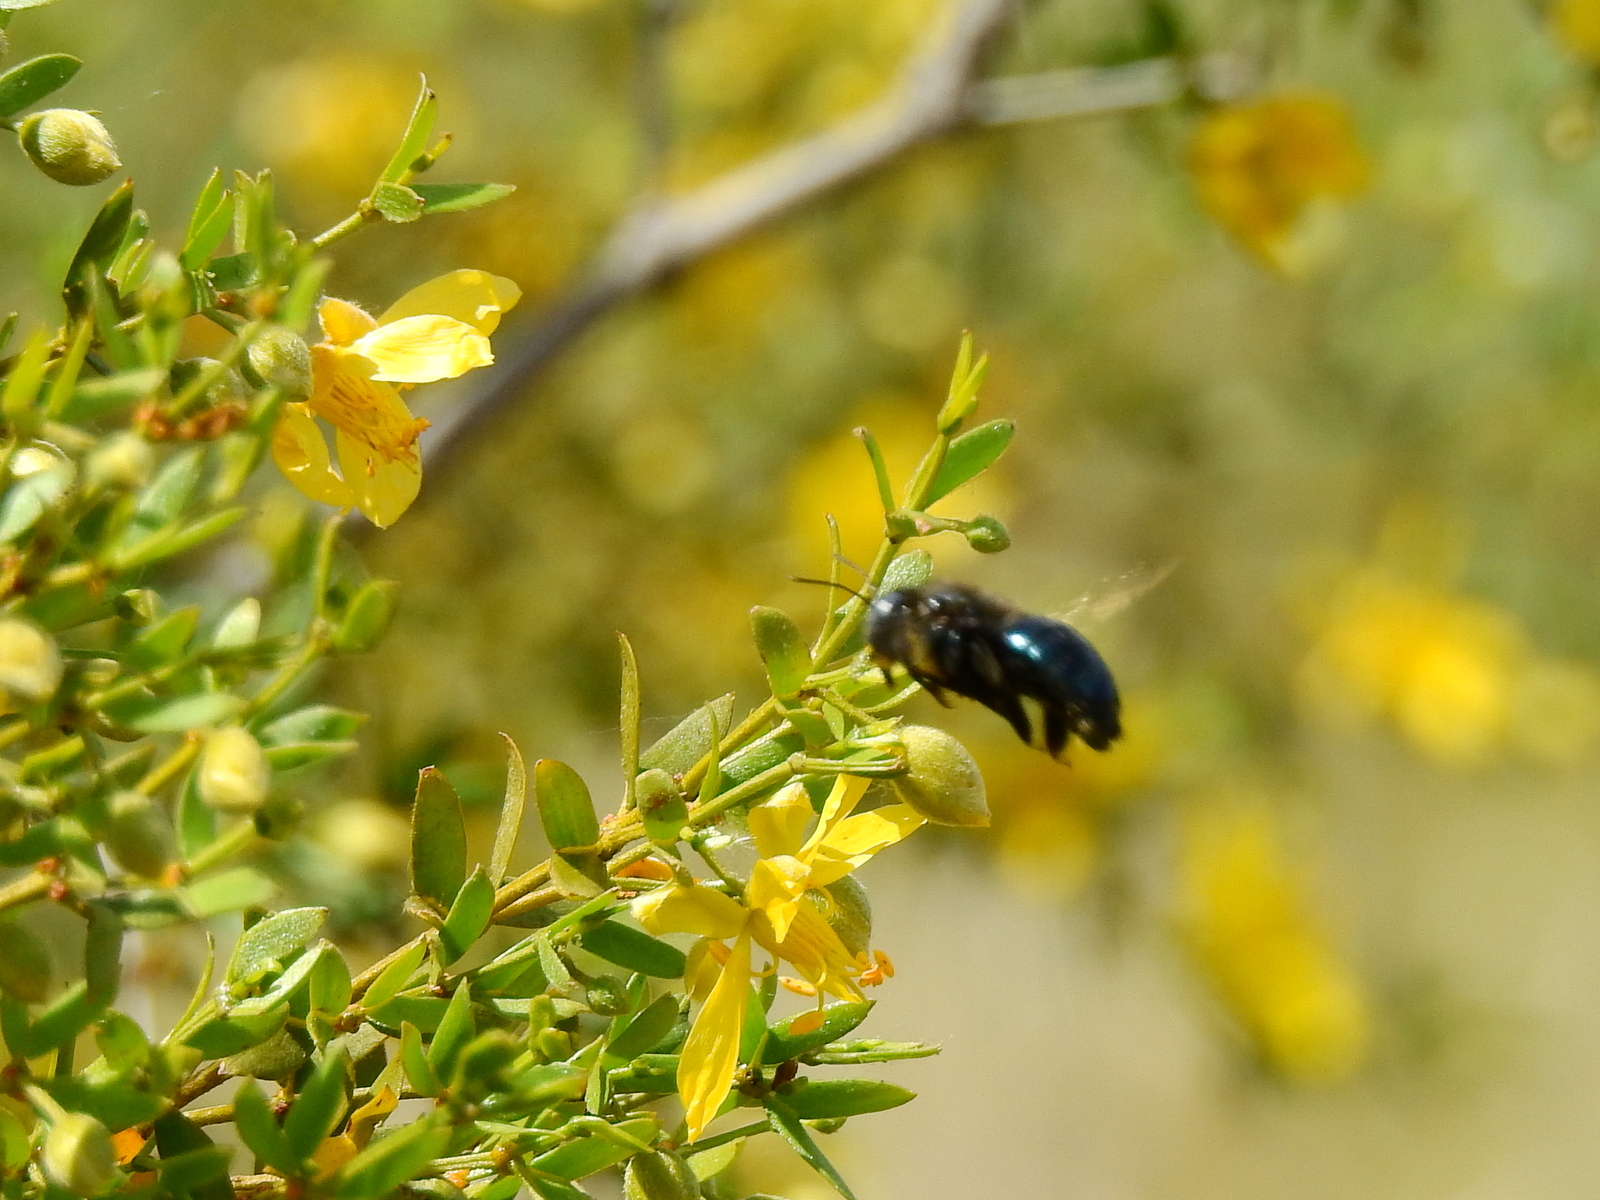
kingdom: Animalia
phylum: Arthropoda
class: Insecta
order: Hymenoptera
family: Apidae
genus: Xylocopa
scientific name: Xylocopa splendidula
